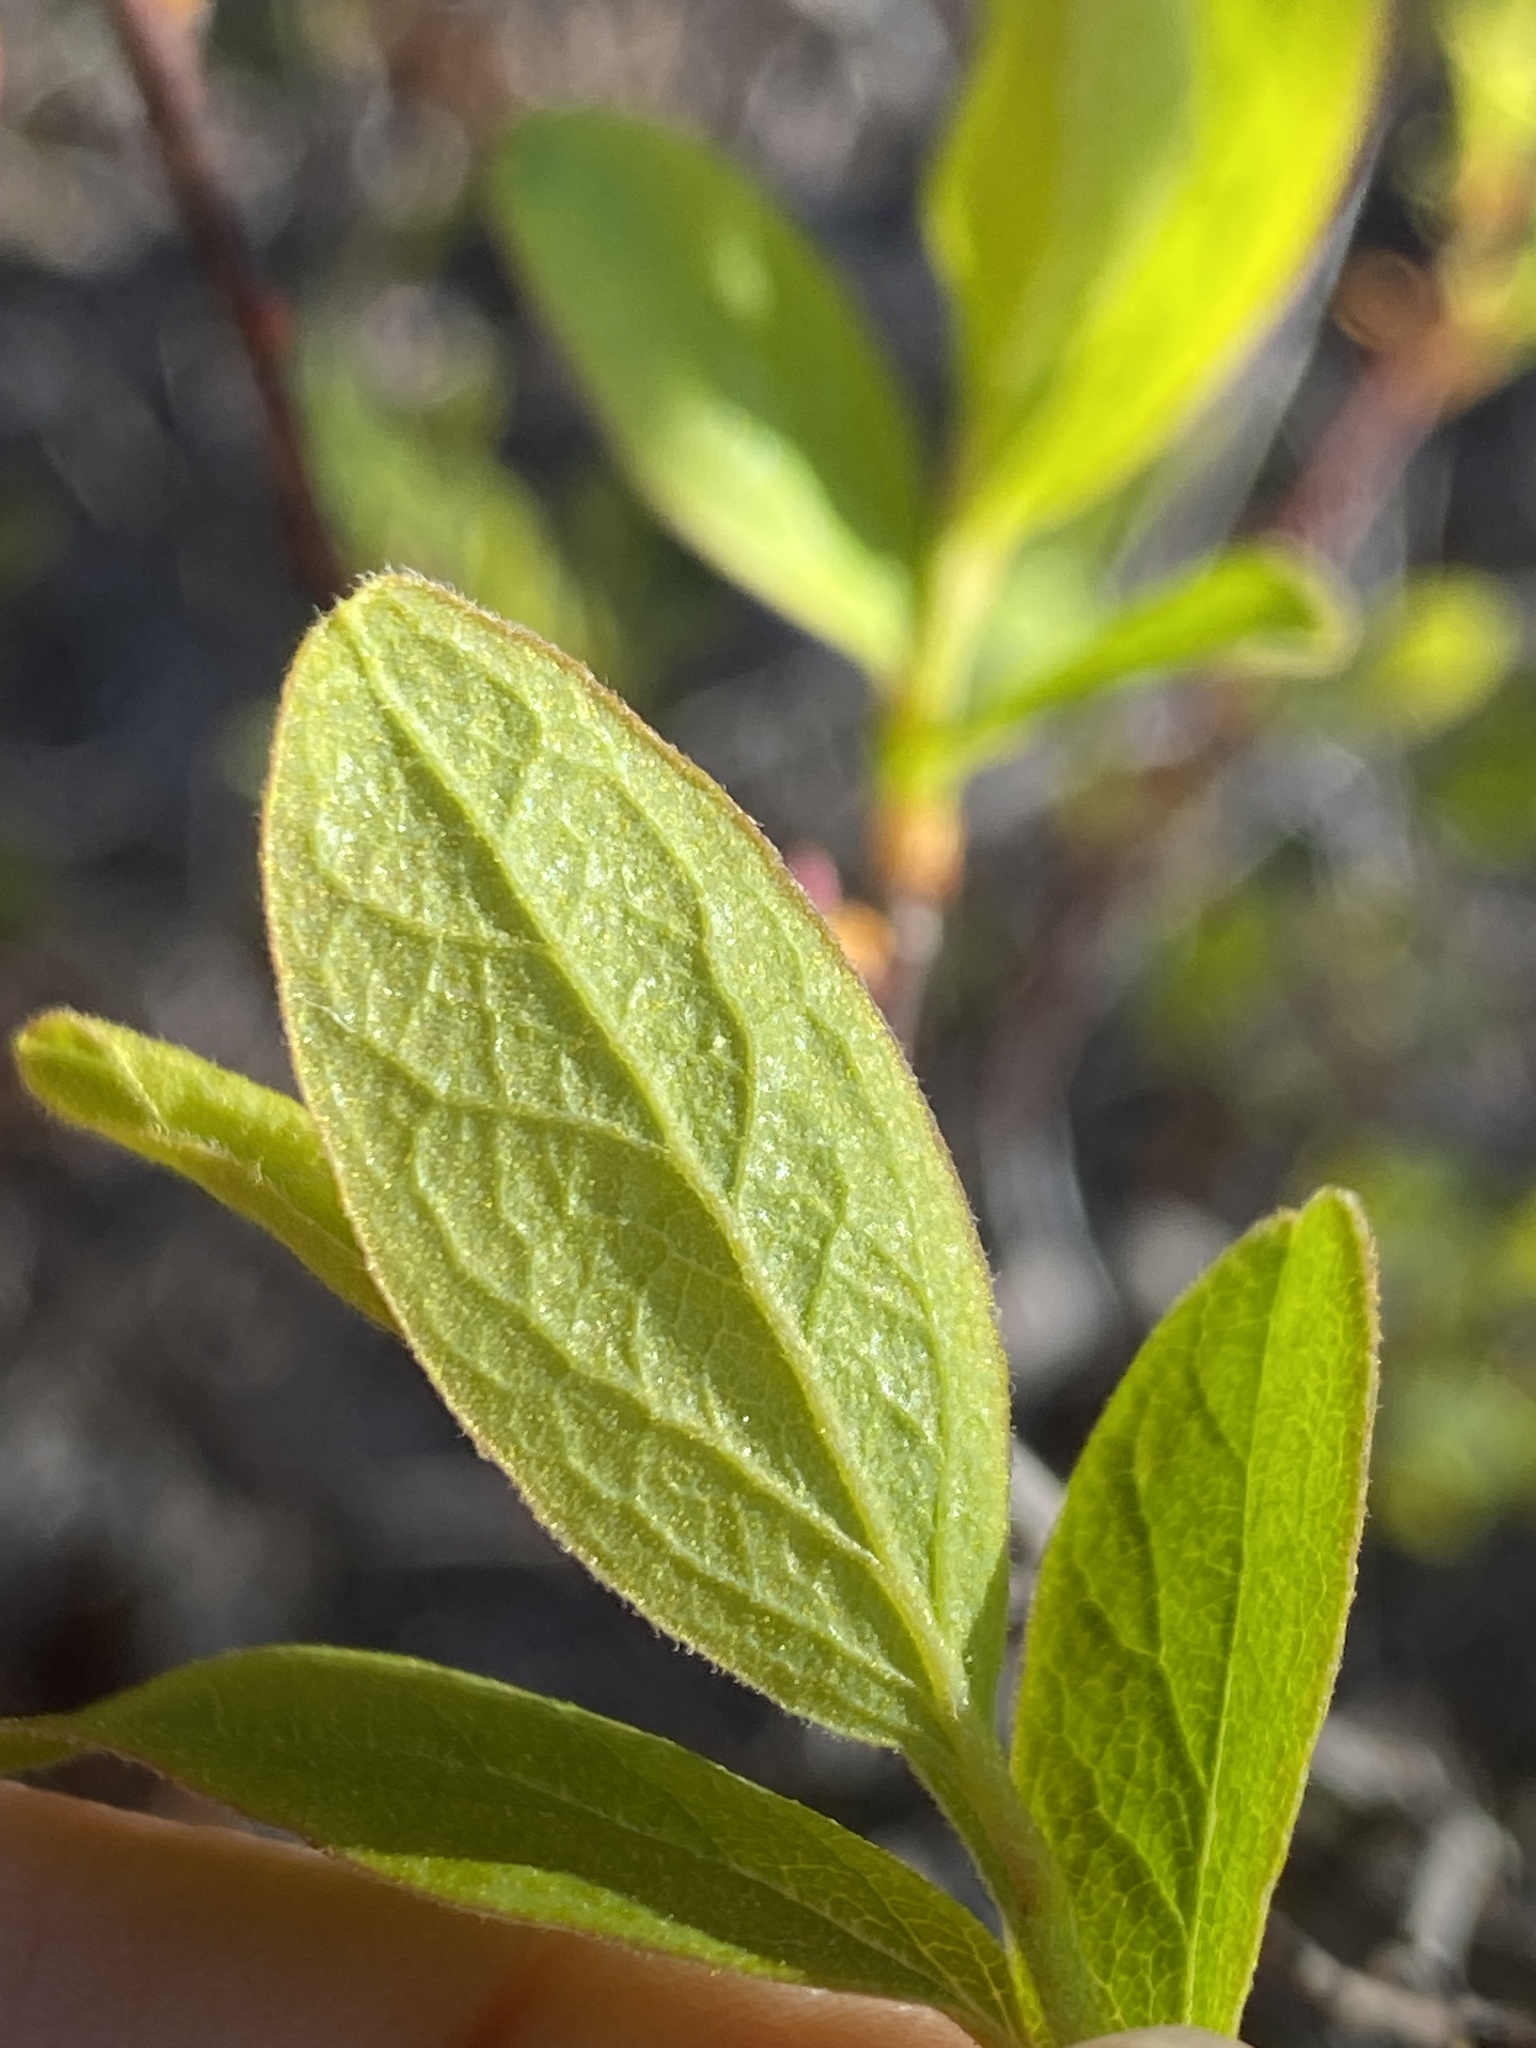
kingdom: Plantae
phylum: Tracheophyta
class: Magnoliopsida
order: Ericales
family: Ericaceae
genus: Gaylussacia
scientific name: Gaylussacia baccata
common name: Black huckleberry
